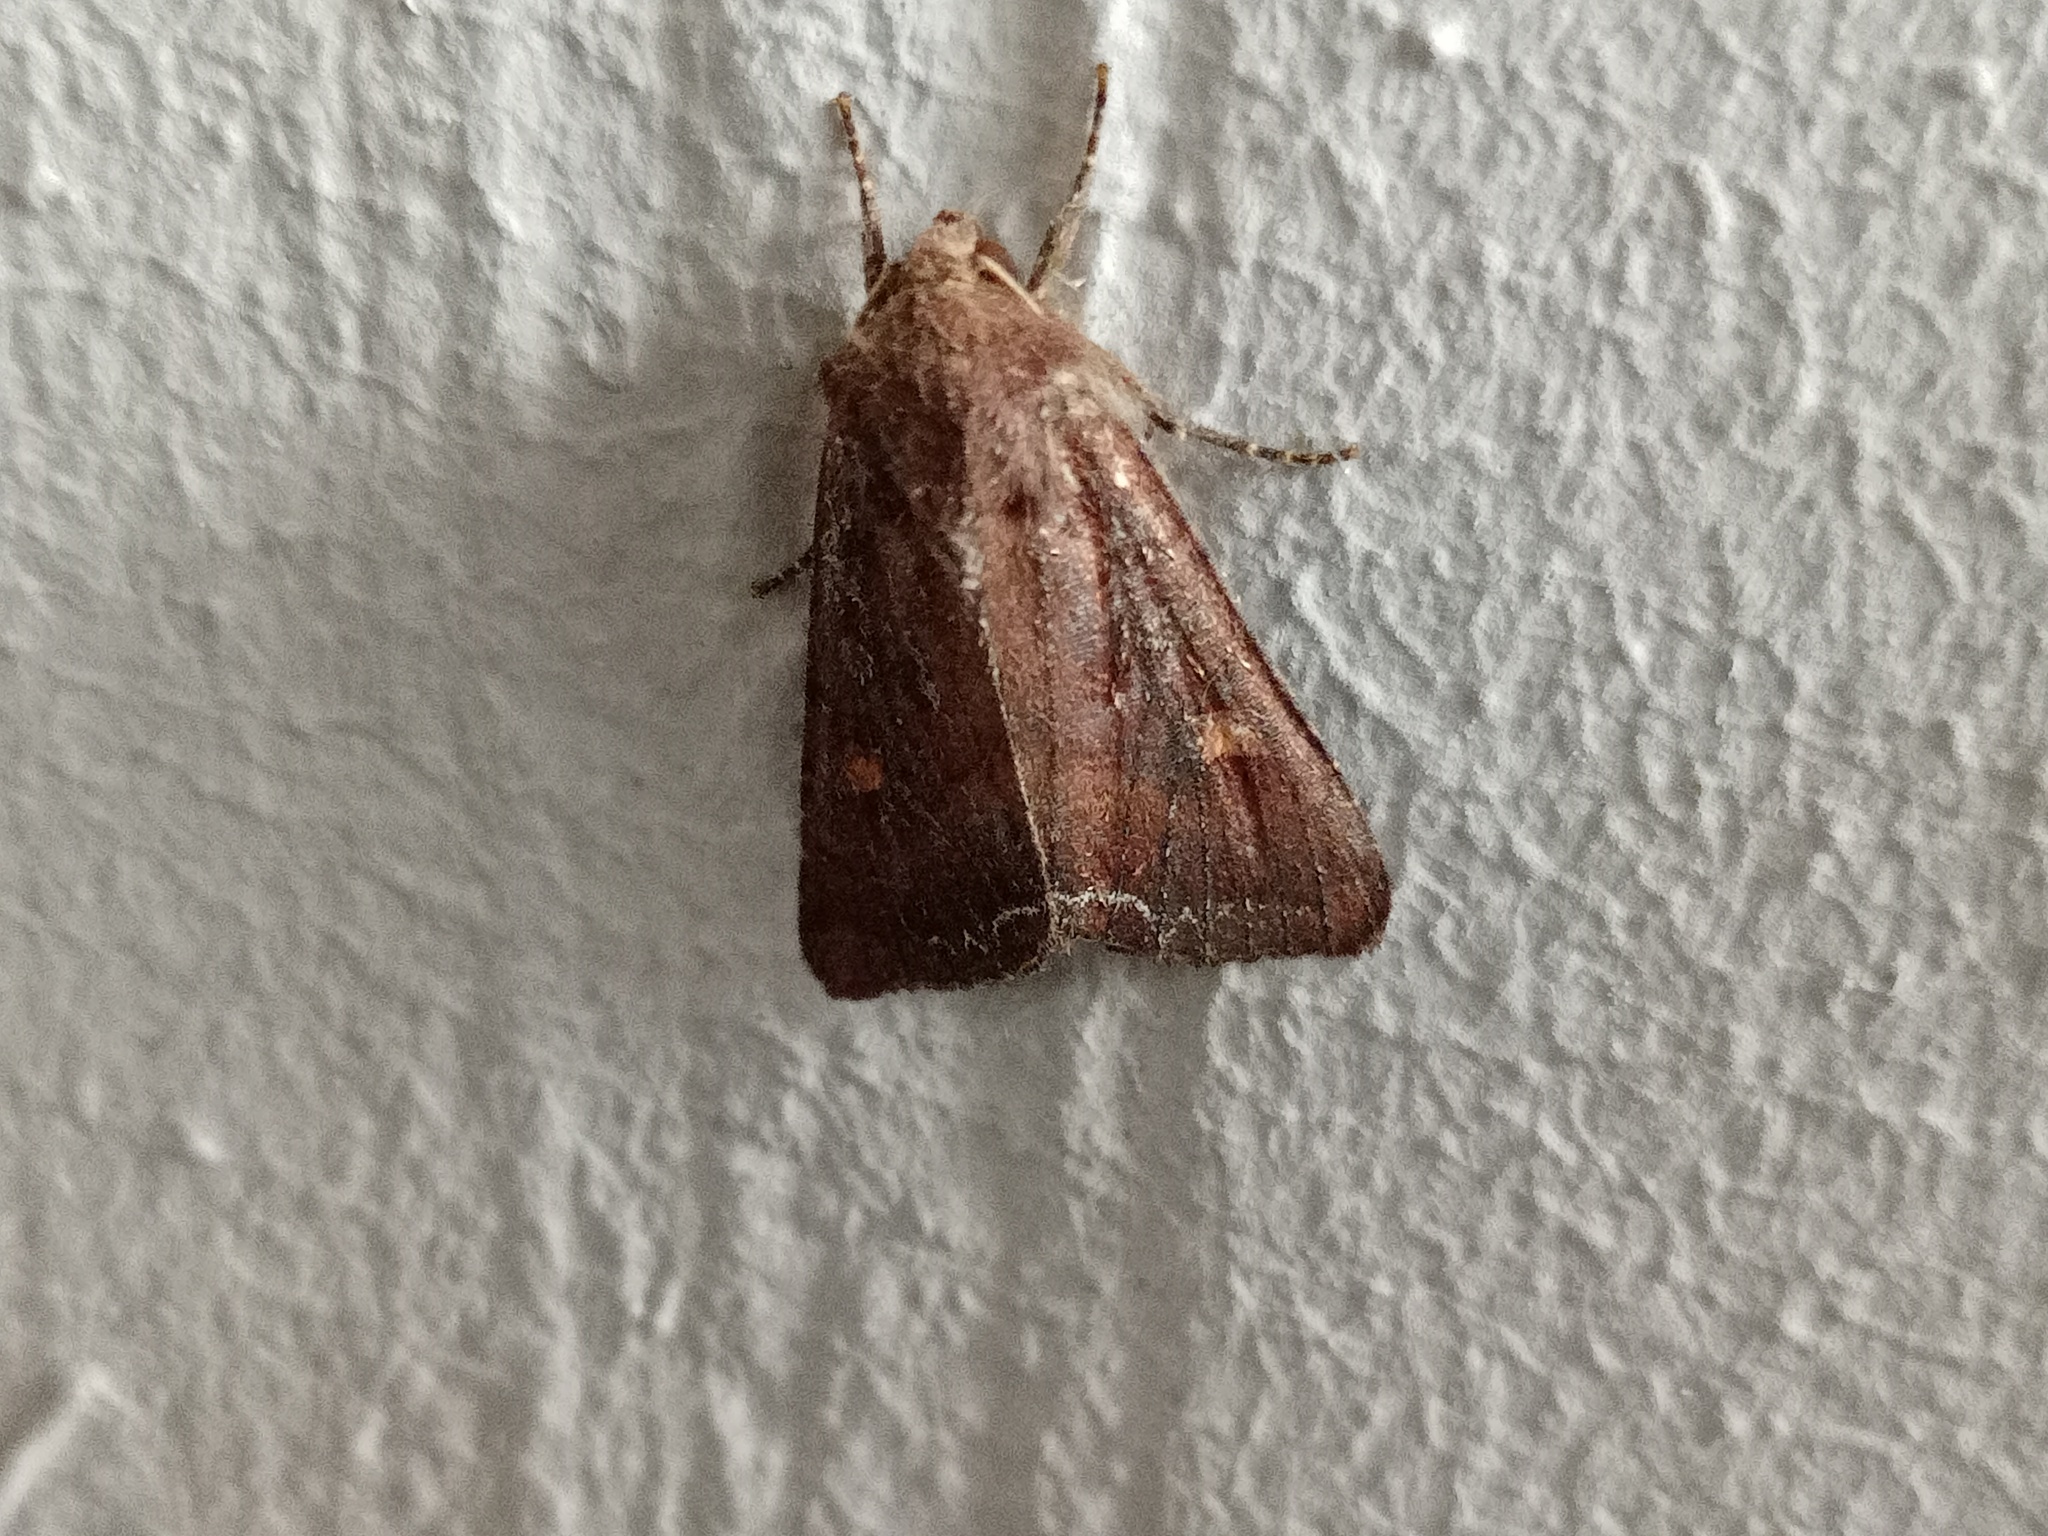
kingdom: Animalia
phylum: Arthropoda
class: Insecta
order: Lepidoptera
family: Noctuidae
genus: Lacanobia
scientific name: Lacanobia oleracea
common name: Bright-line brown-eye
